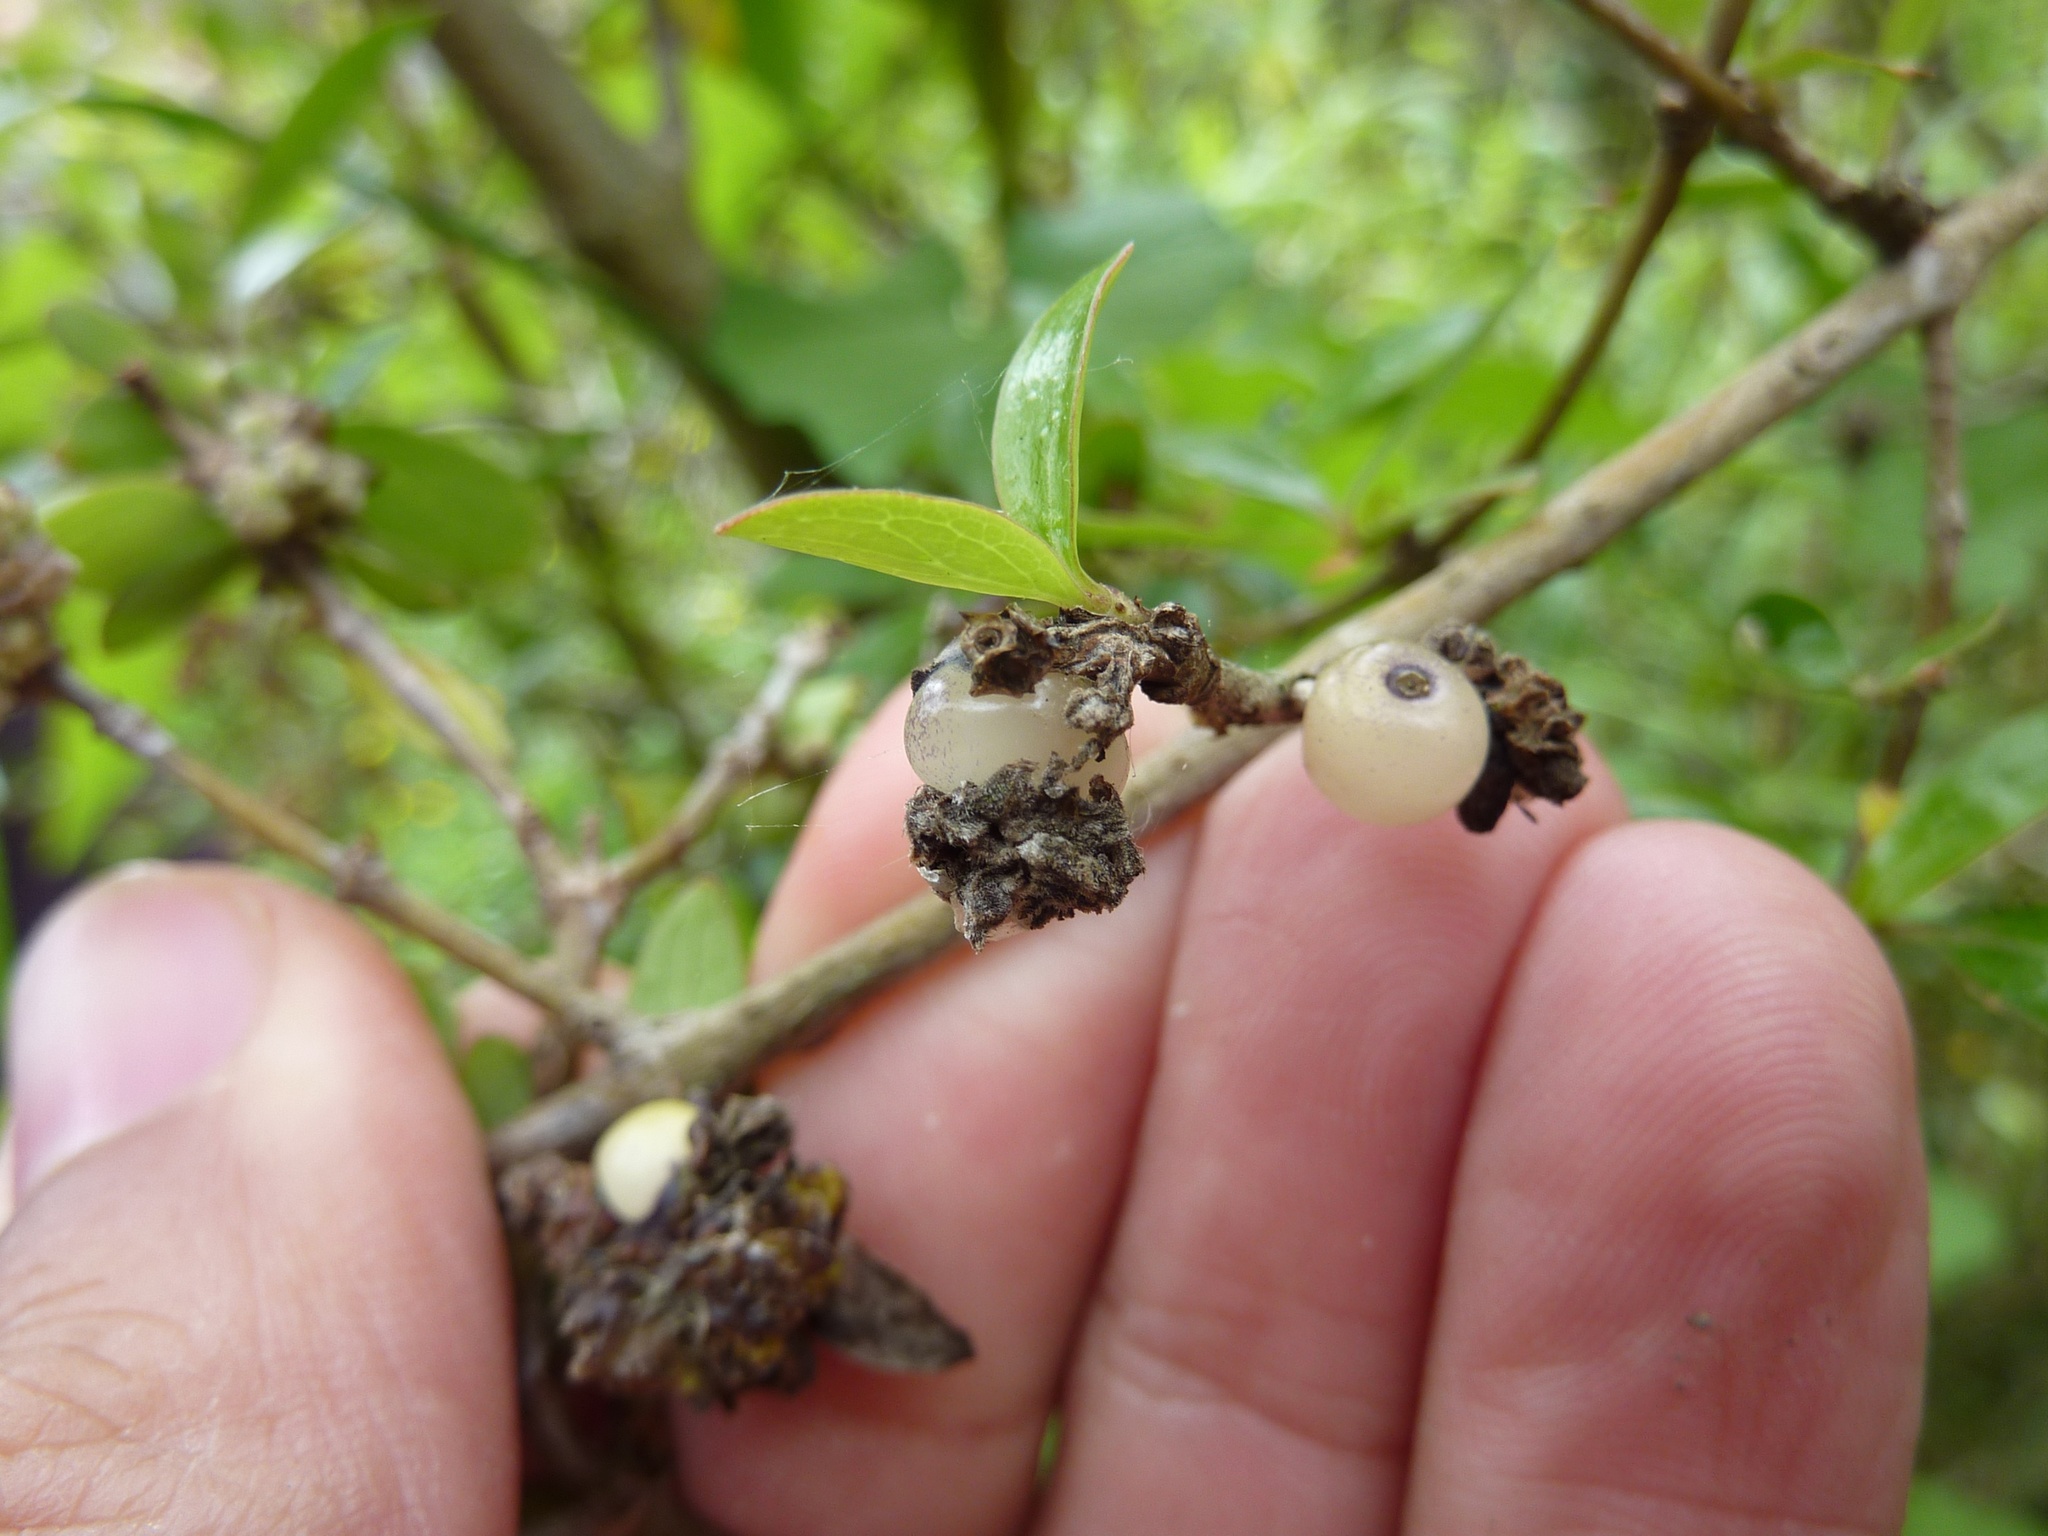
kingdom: Plantae
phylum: Tracheophyta
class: Magnoliopsida
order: Gentianales
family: Rubiaceae
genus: Coprosma
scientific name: Coprosma cunninghamii
